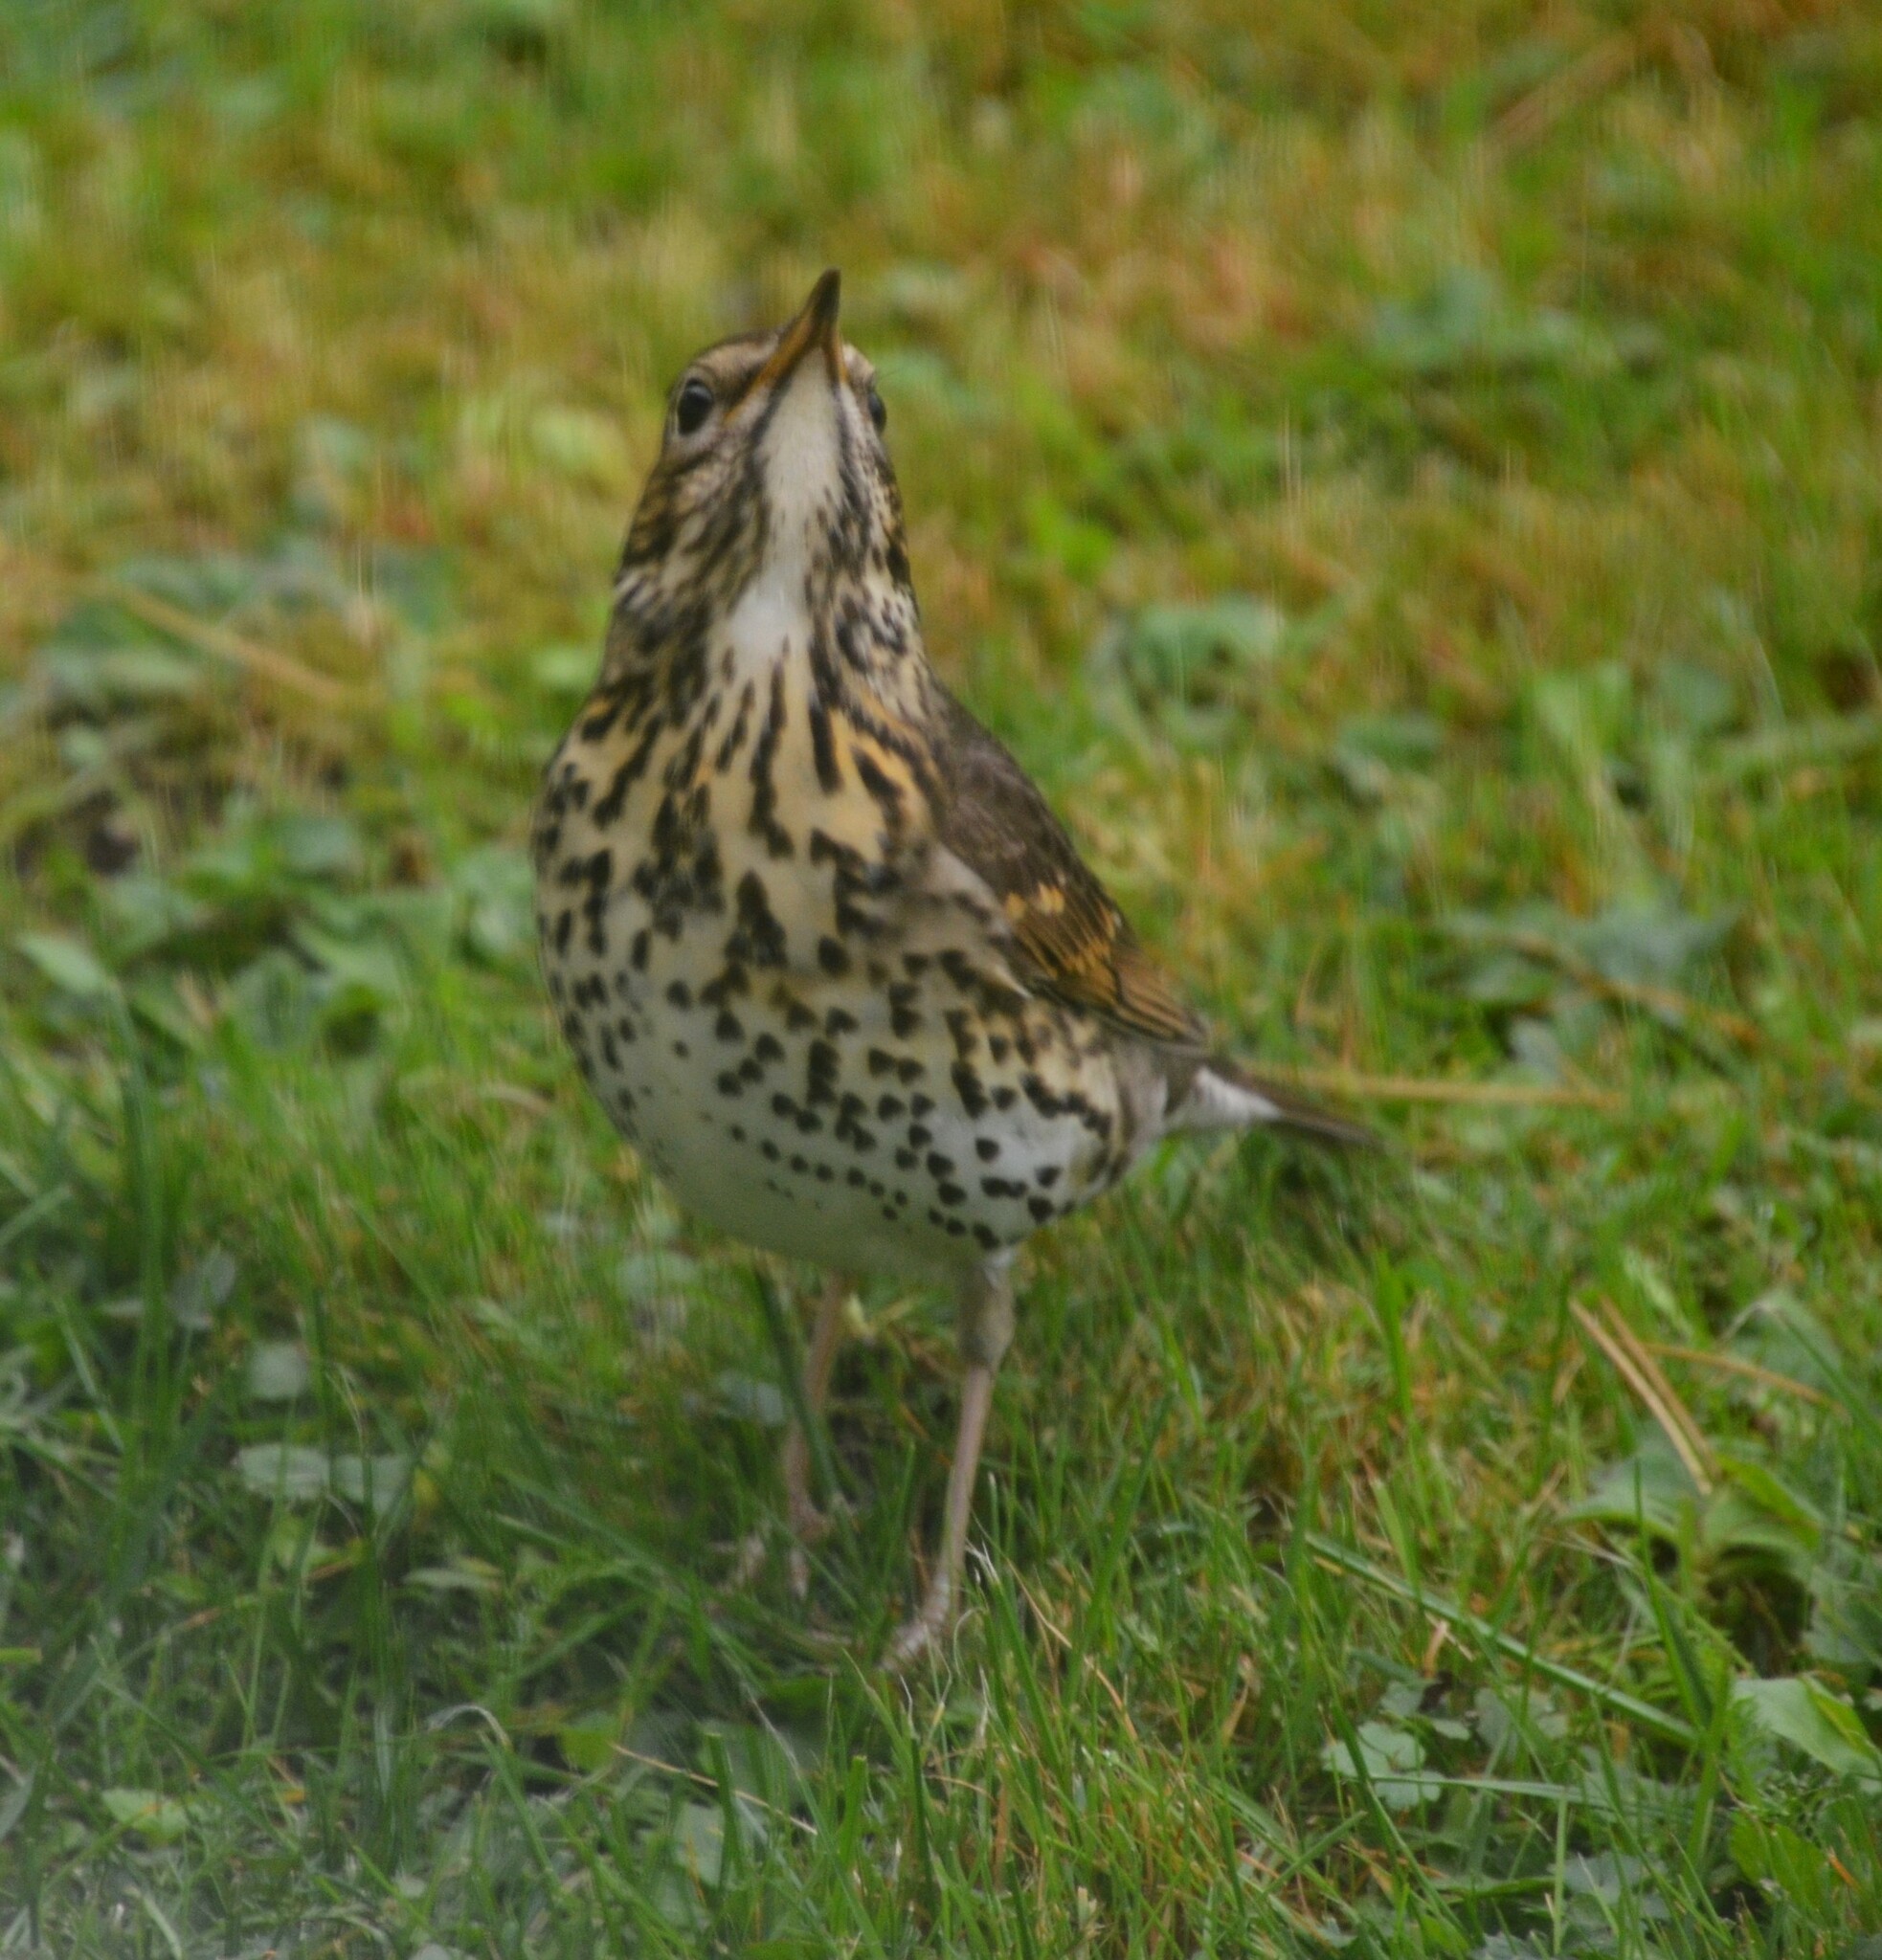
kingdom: Animalia
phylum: Chordata
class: Aves
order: Passeriformes
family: Turdidae
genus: Turdus
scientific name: Turdus philomelos
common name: Song thrush
